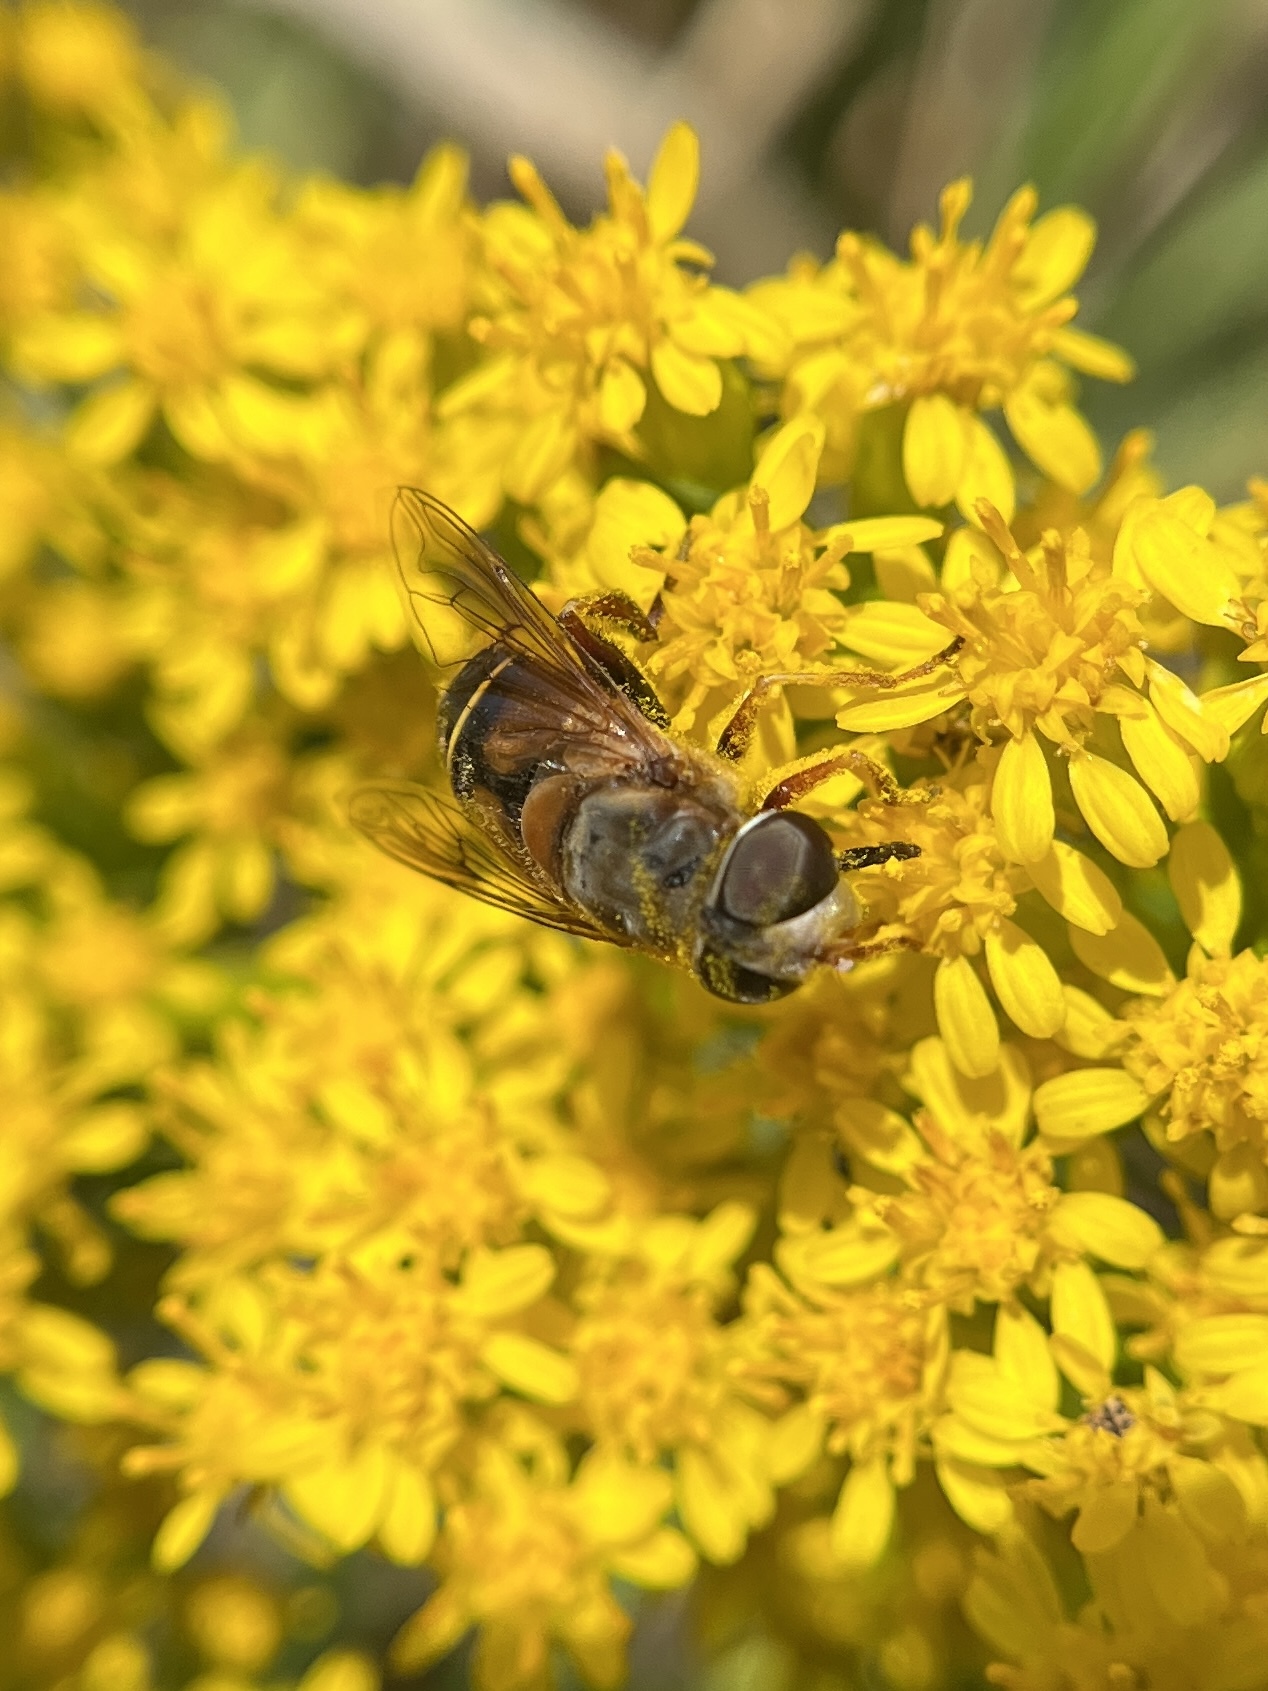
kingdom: Animalia
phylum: Arthropoda
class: Insecta
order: Diptera
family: Syrphidae
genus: Palpada
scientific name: Palpada vinetorum
